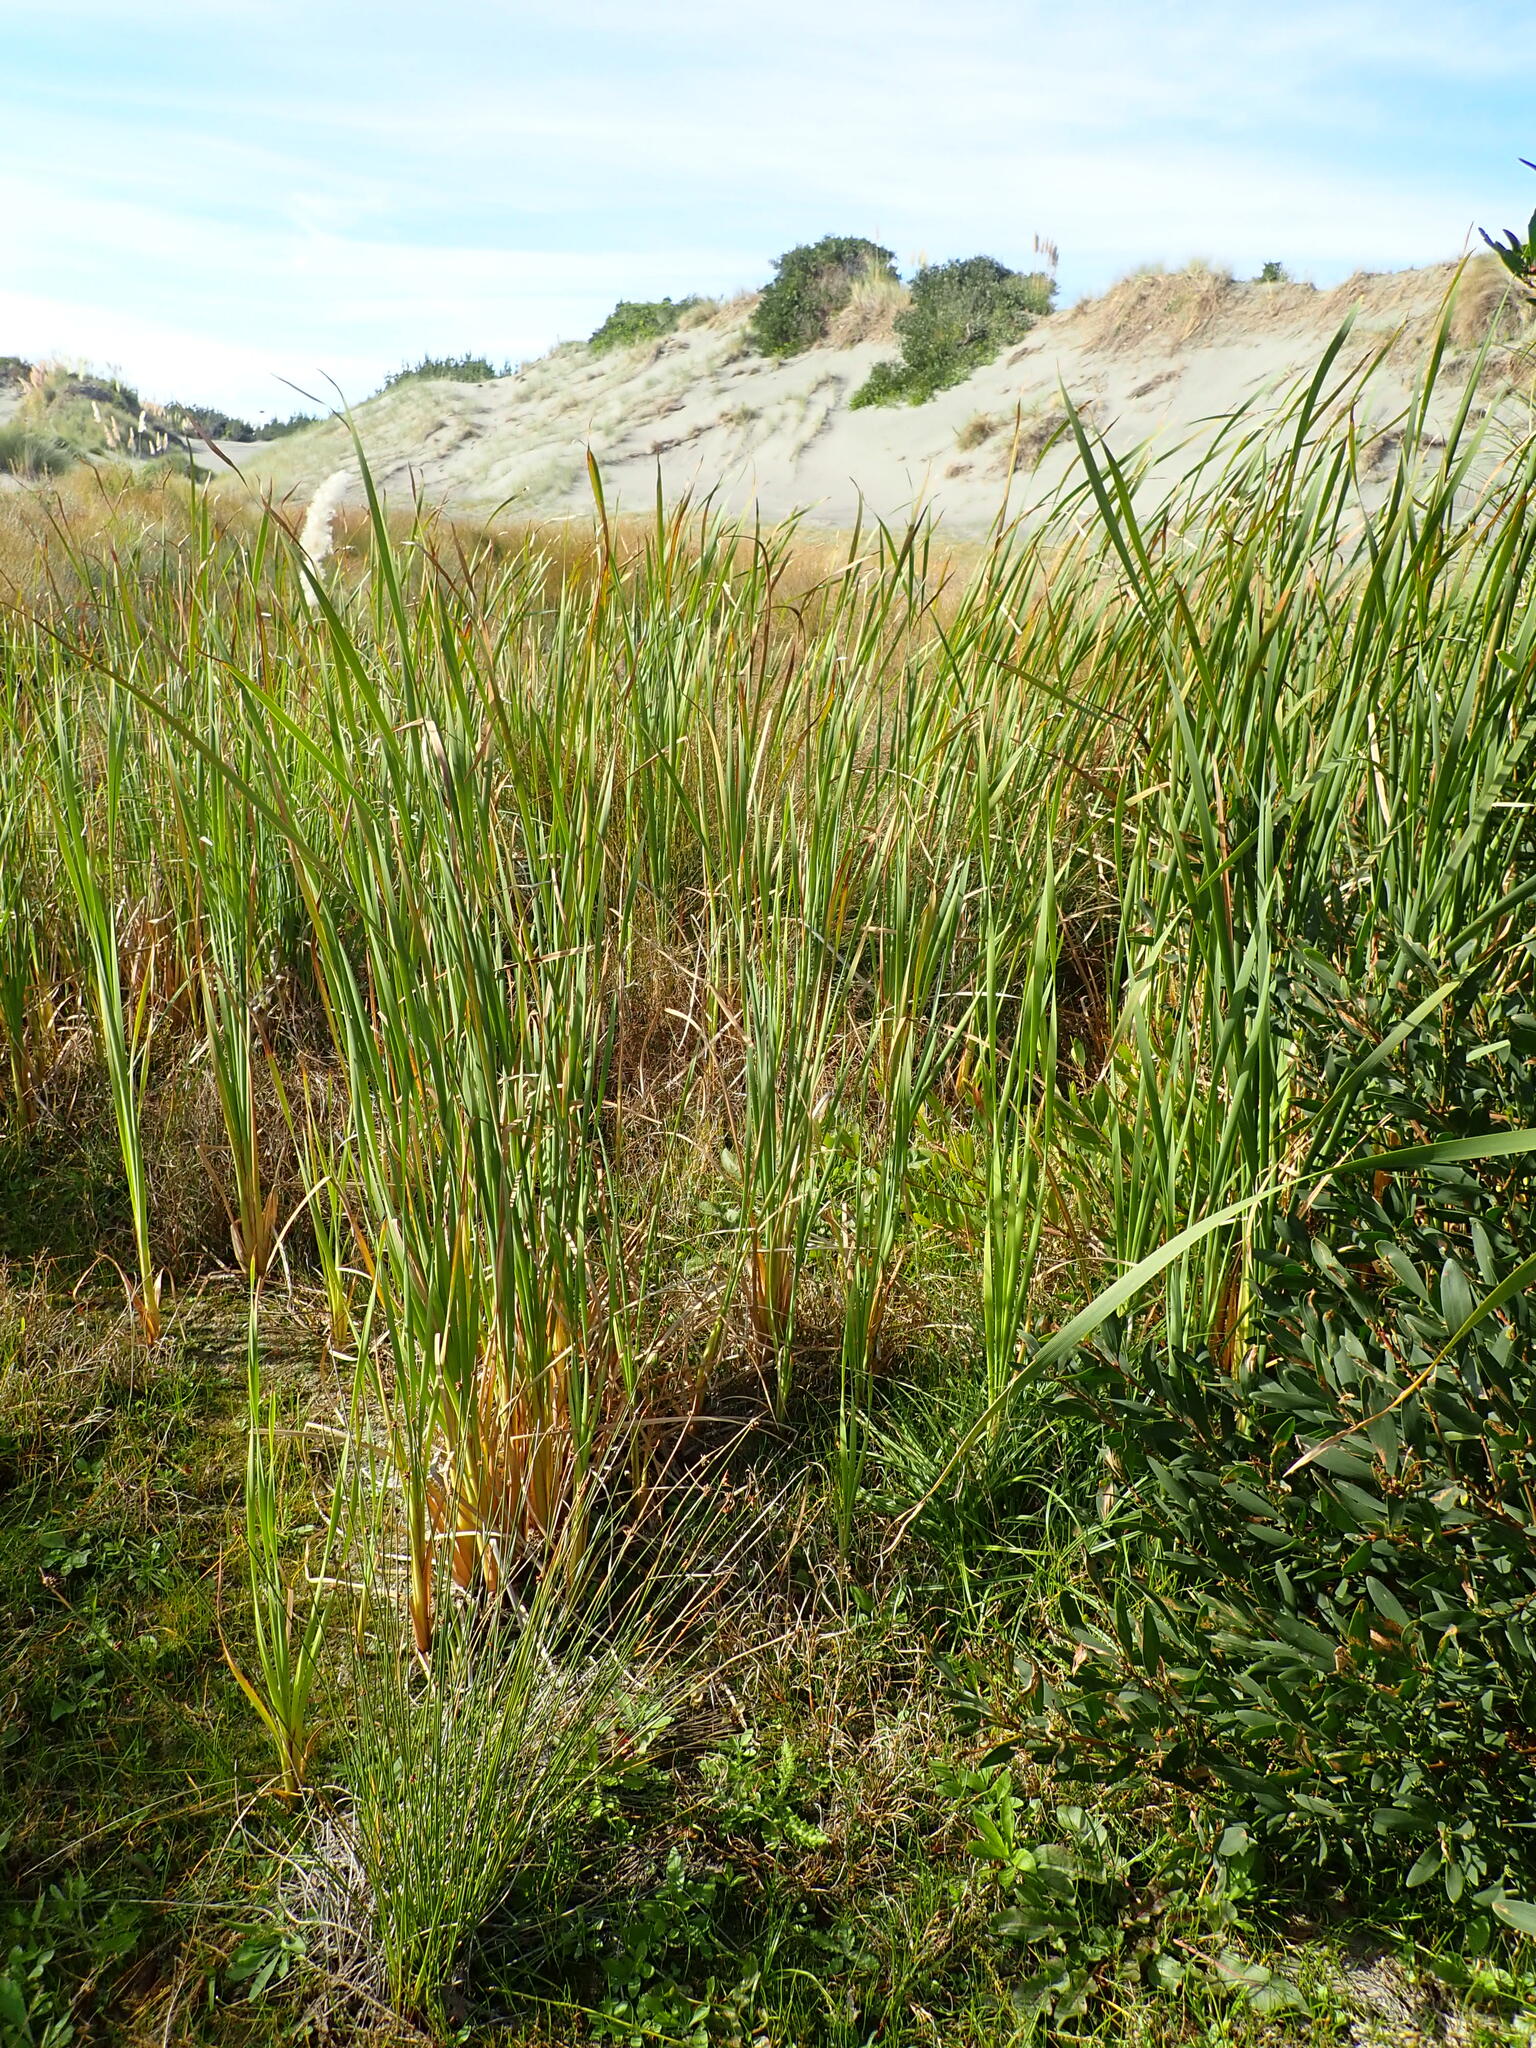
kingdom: Plantae
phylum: Tracheophyta
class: Liliopsida
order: Poales
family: Typhaceae
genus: Typha
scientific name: Typha orientalis
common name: Bullrush
